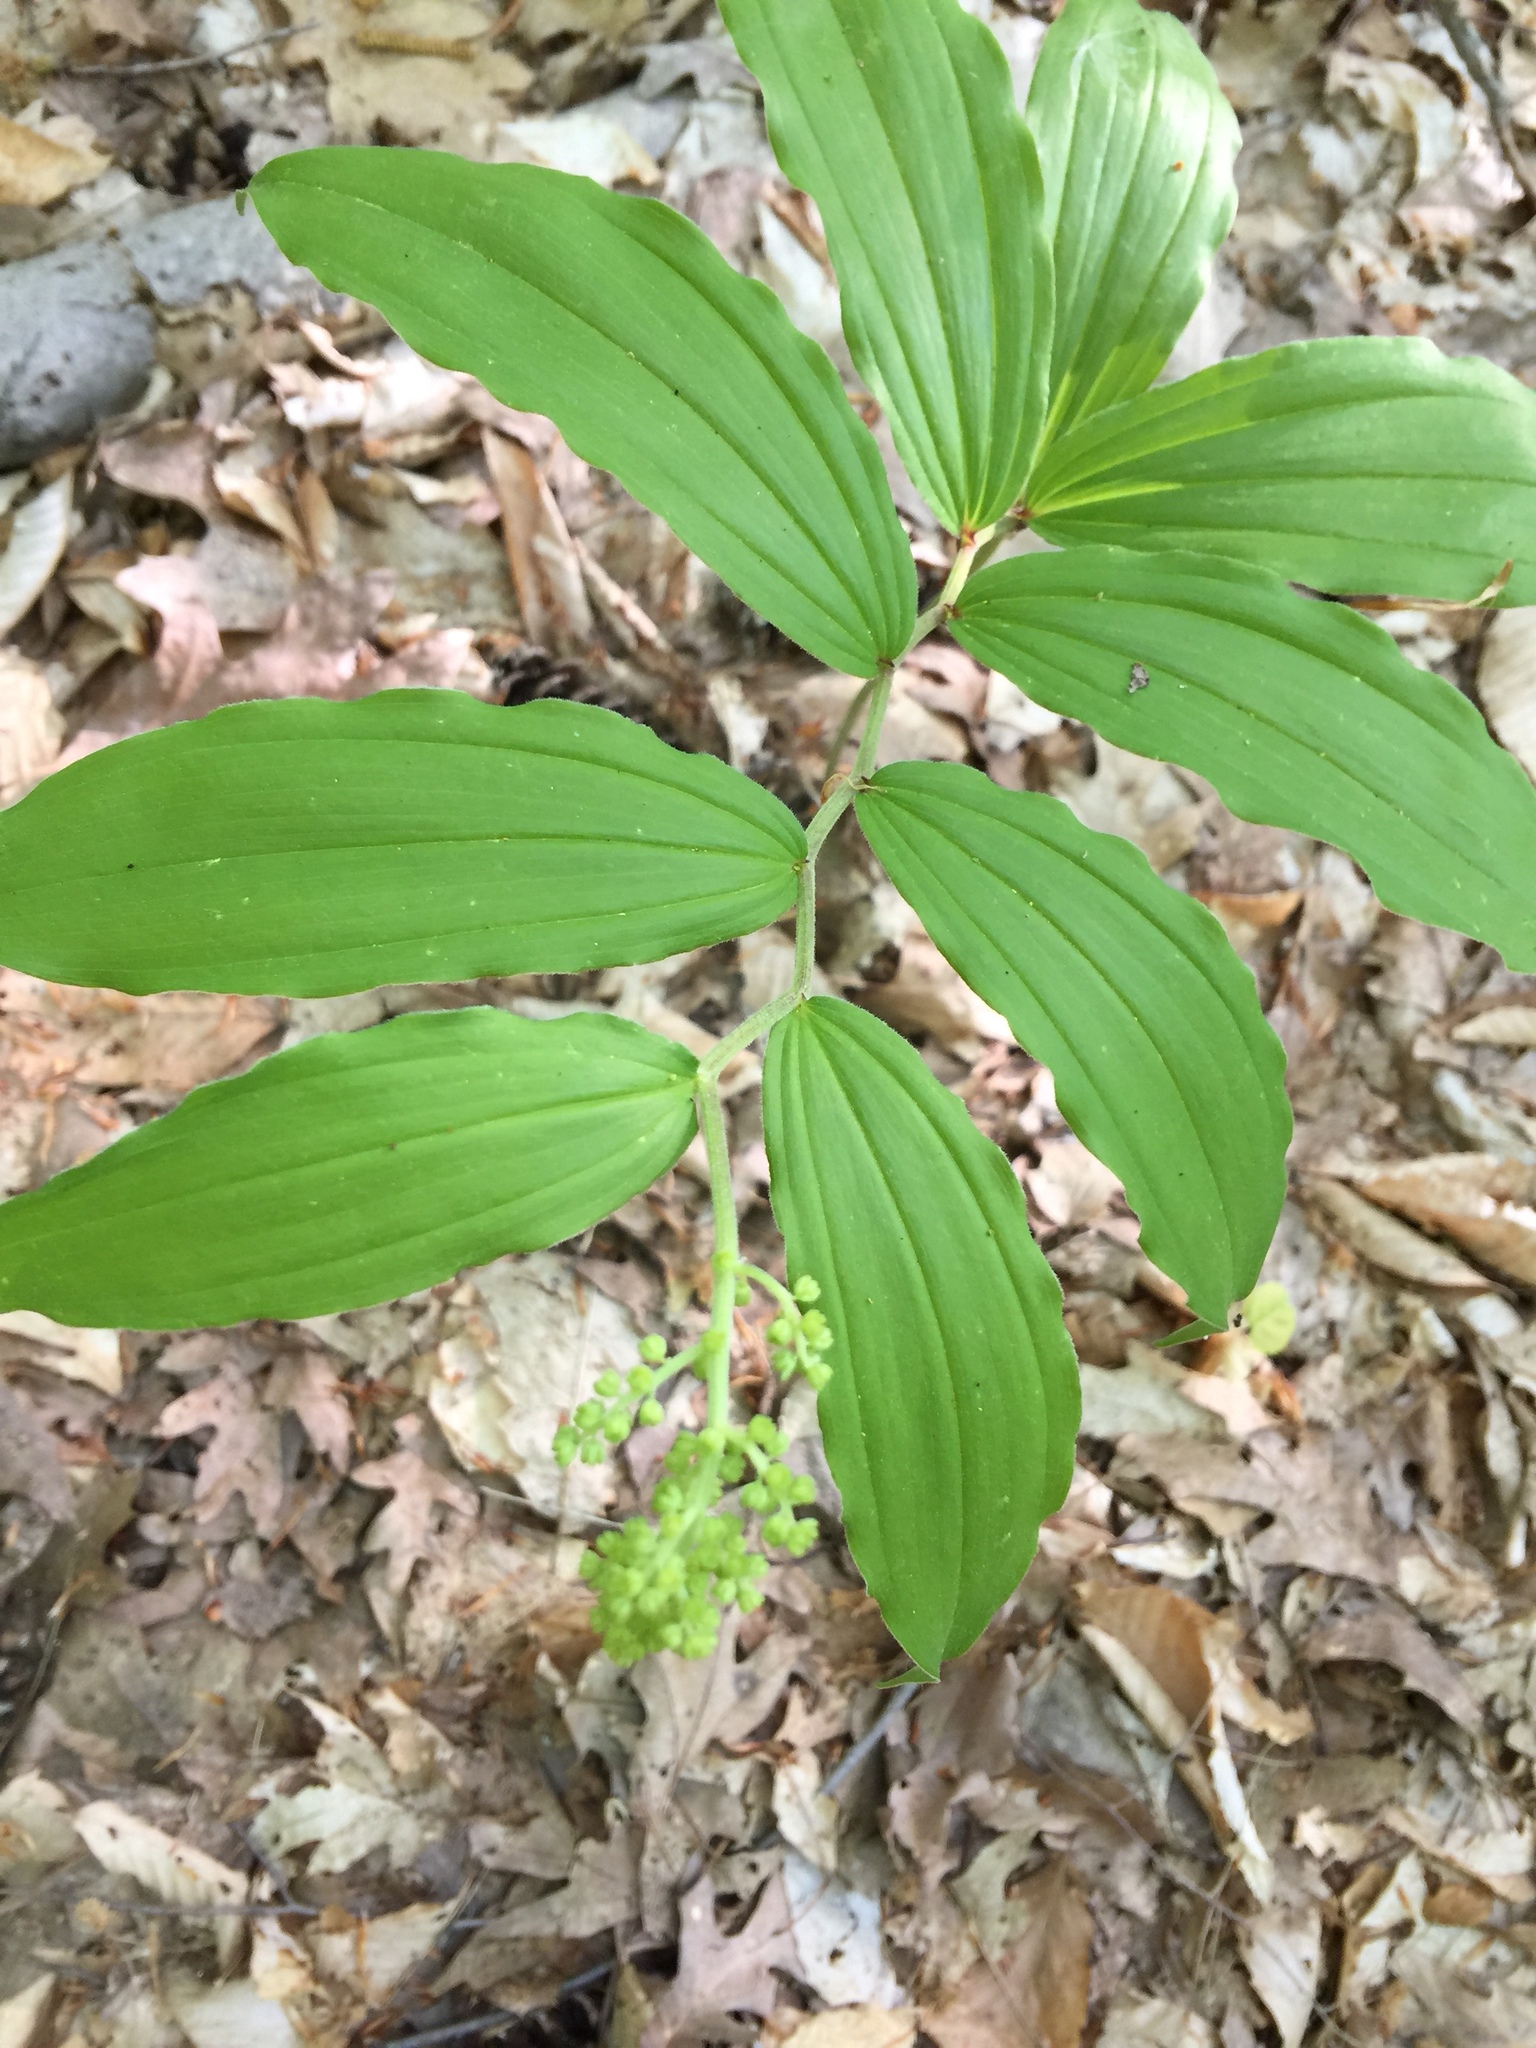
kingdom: Plantae
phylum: Tracheophyta
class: Liliopsida
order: Asparagales
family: Asparagaceae
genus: Maianthemum
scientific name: Maianthemum racemosum
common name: False spikenard
